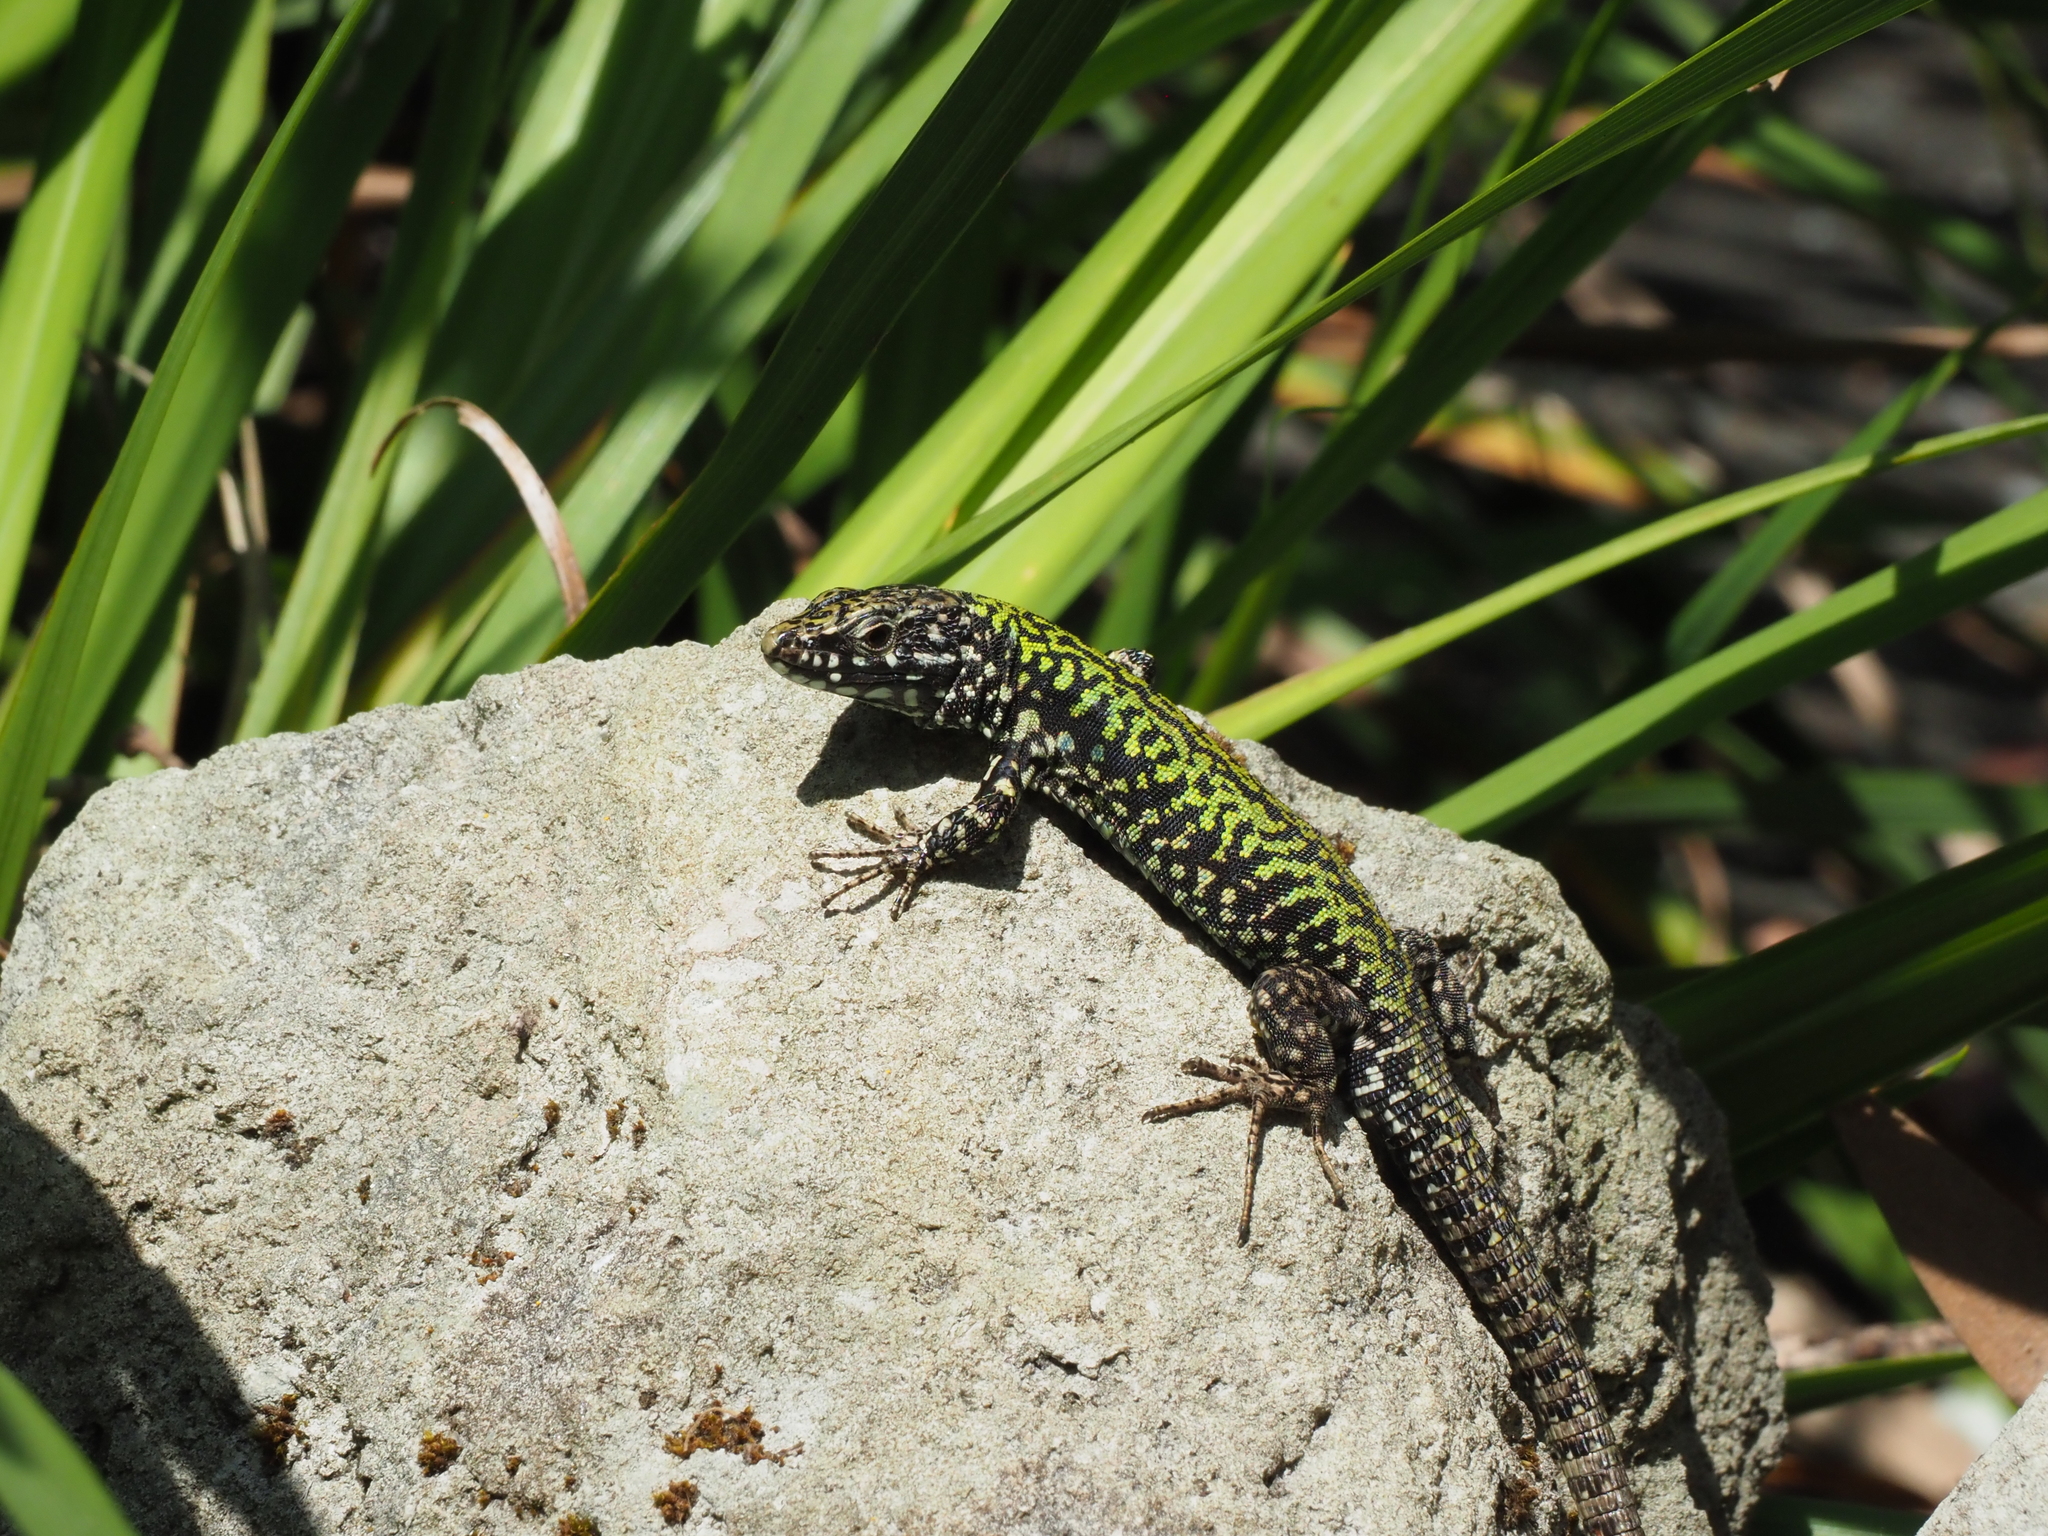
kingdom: Animalia
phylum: Chordata
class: Squamata
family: Lacertidae
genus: Podarcis
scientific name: Podarcis muralis
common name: Common wall lizard
